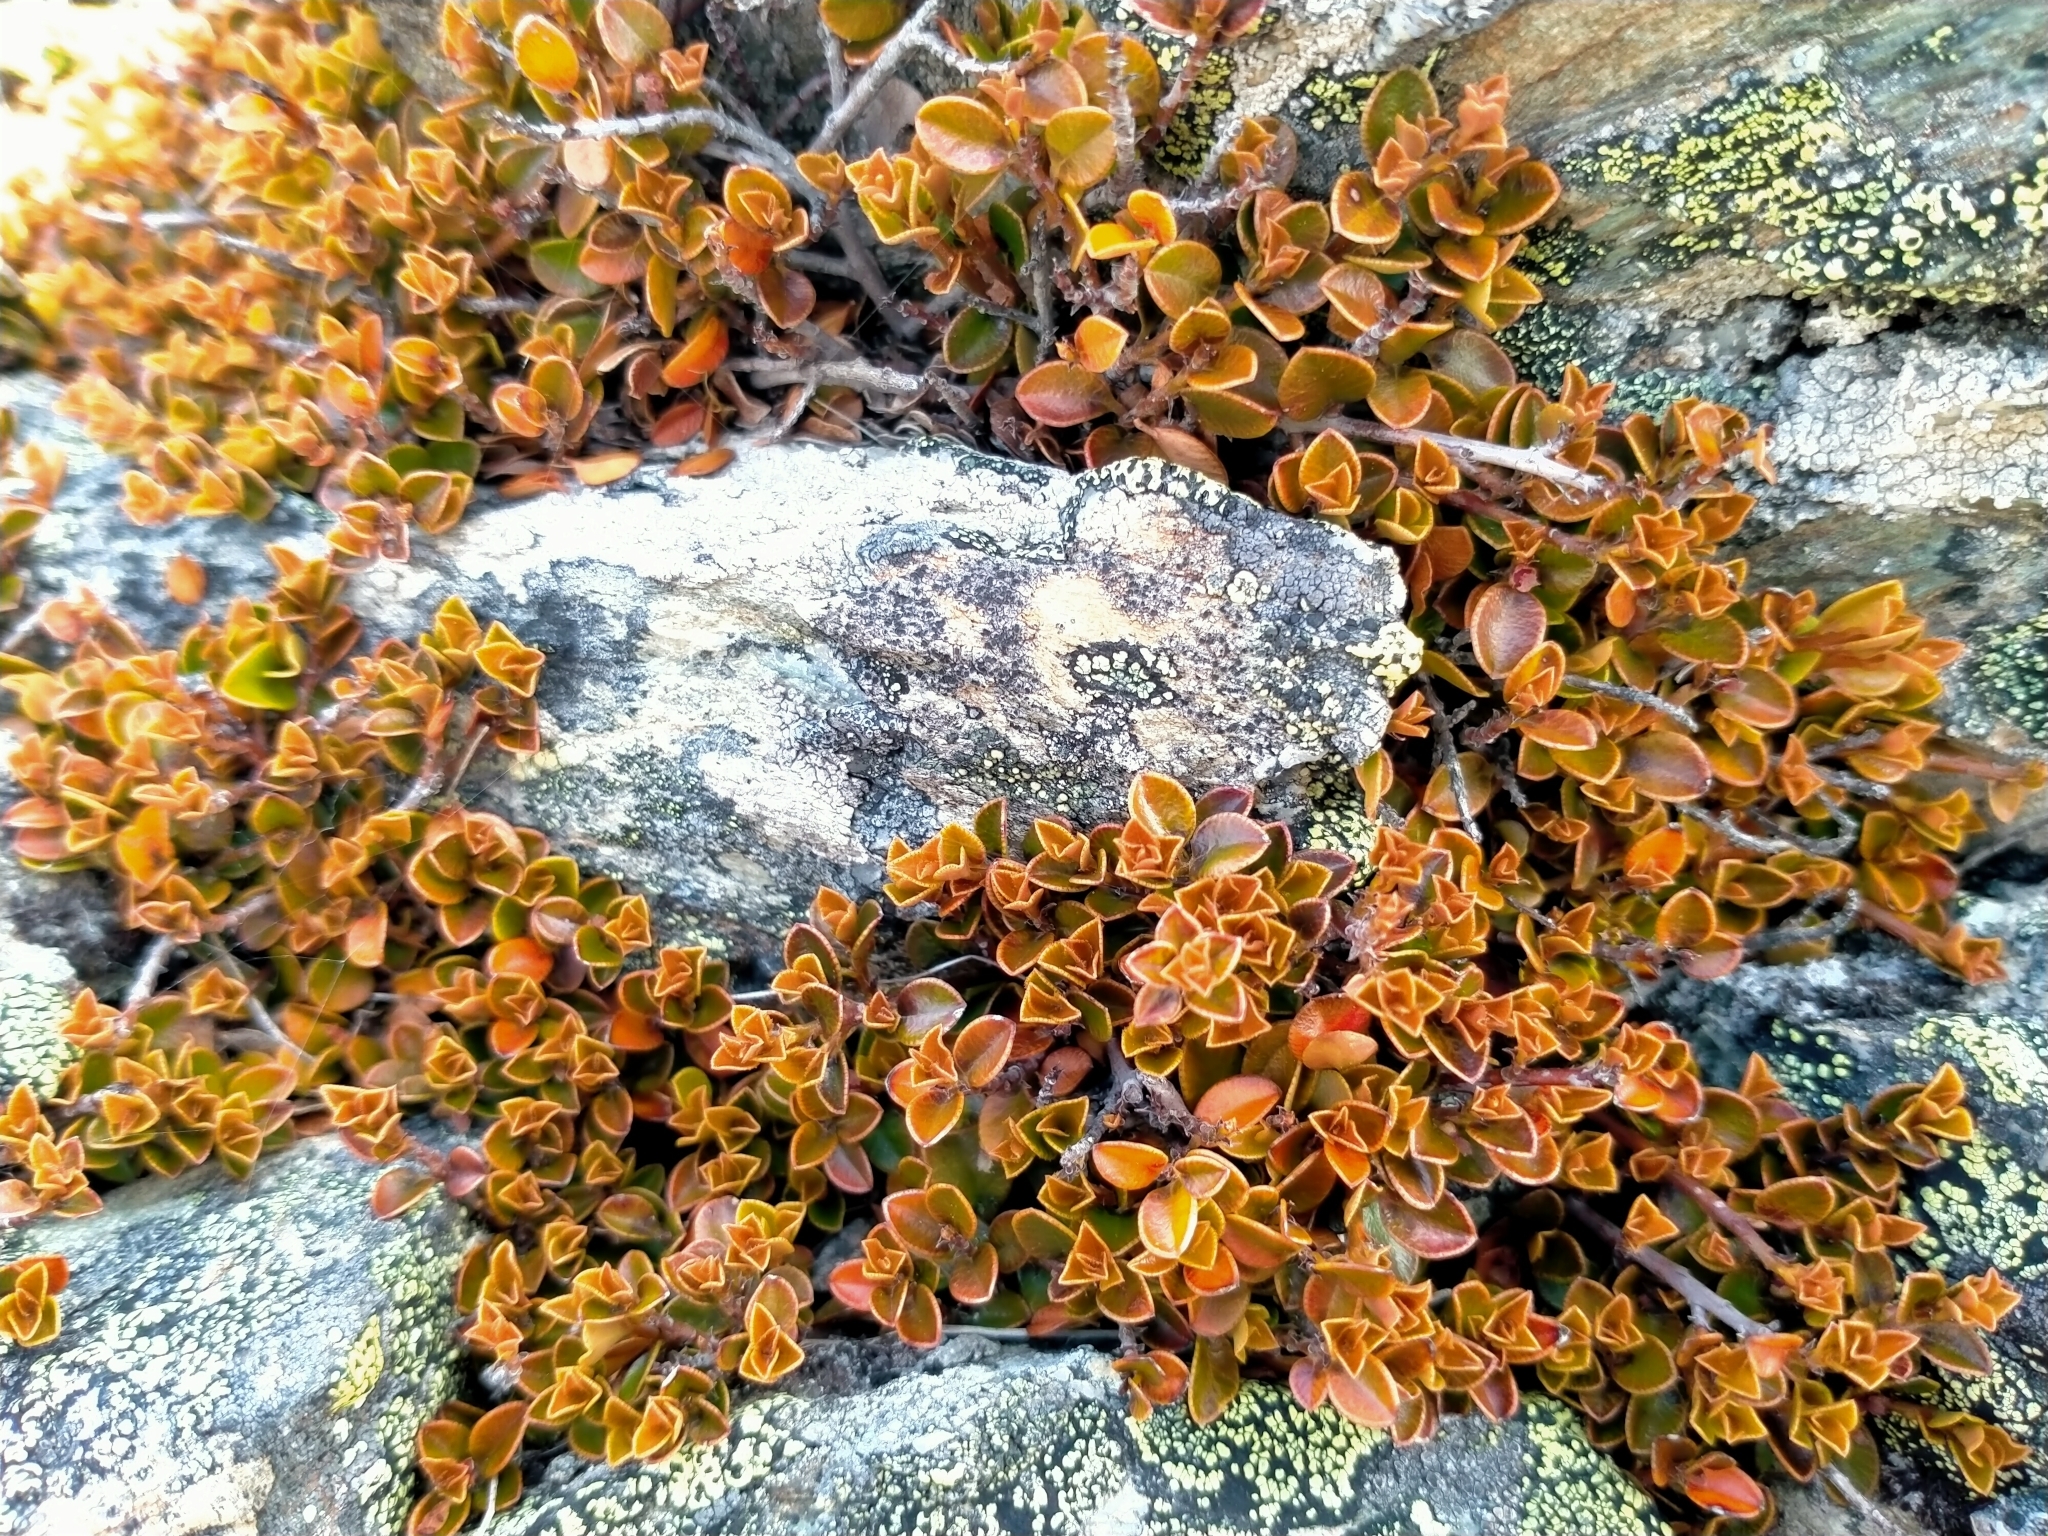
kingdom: Plantae
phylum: Tracheophyta
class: Magnoliopsida
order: Ericales
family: Primulaceae
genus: Myrsine
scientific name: Myrsine nummularia
